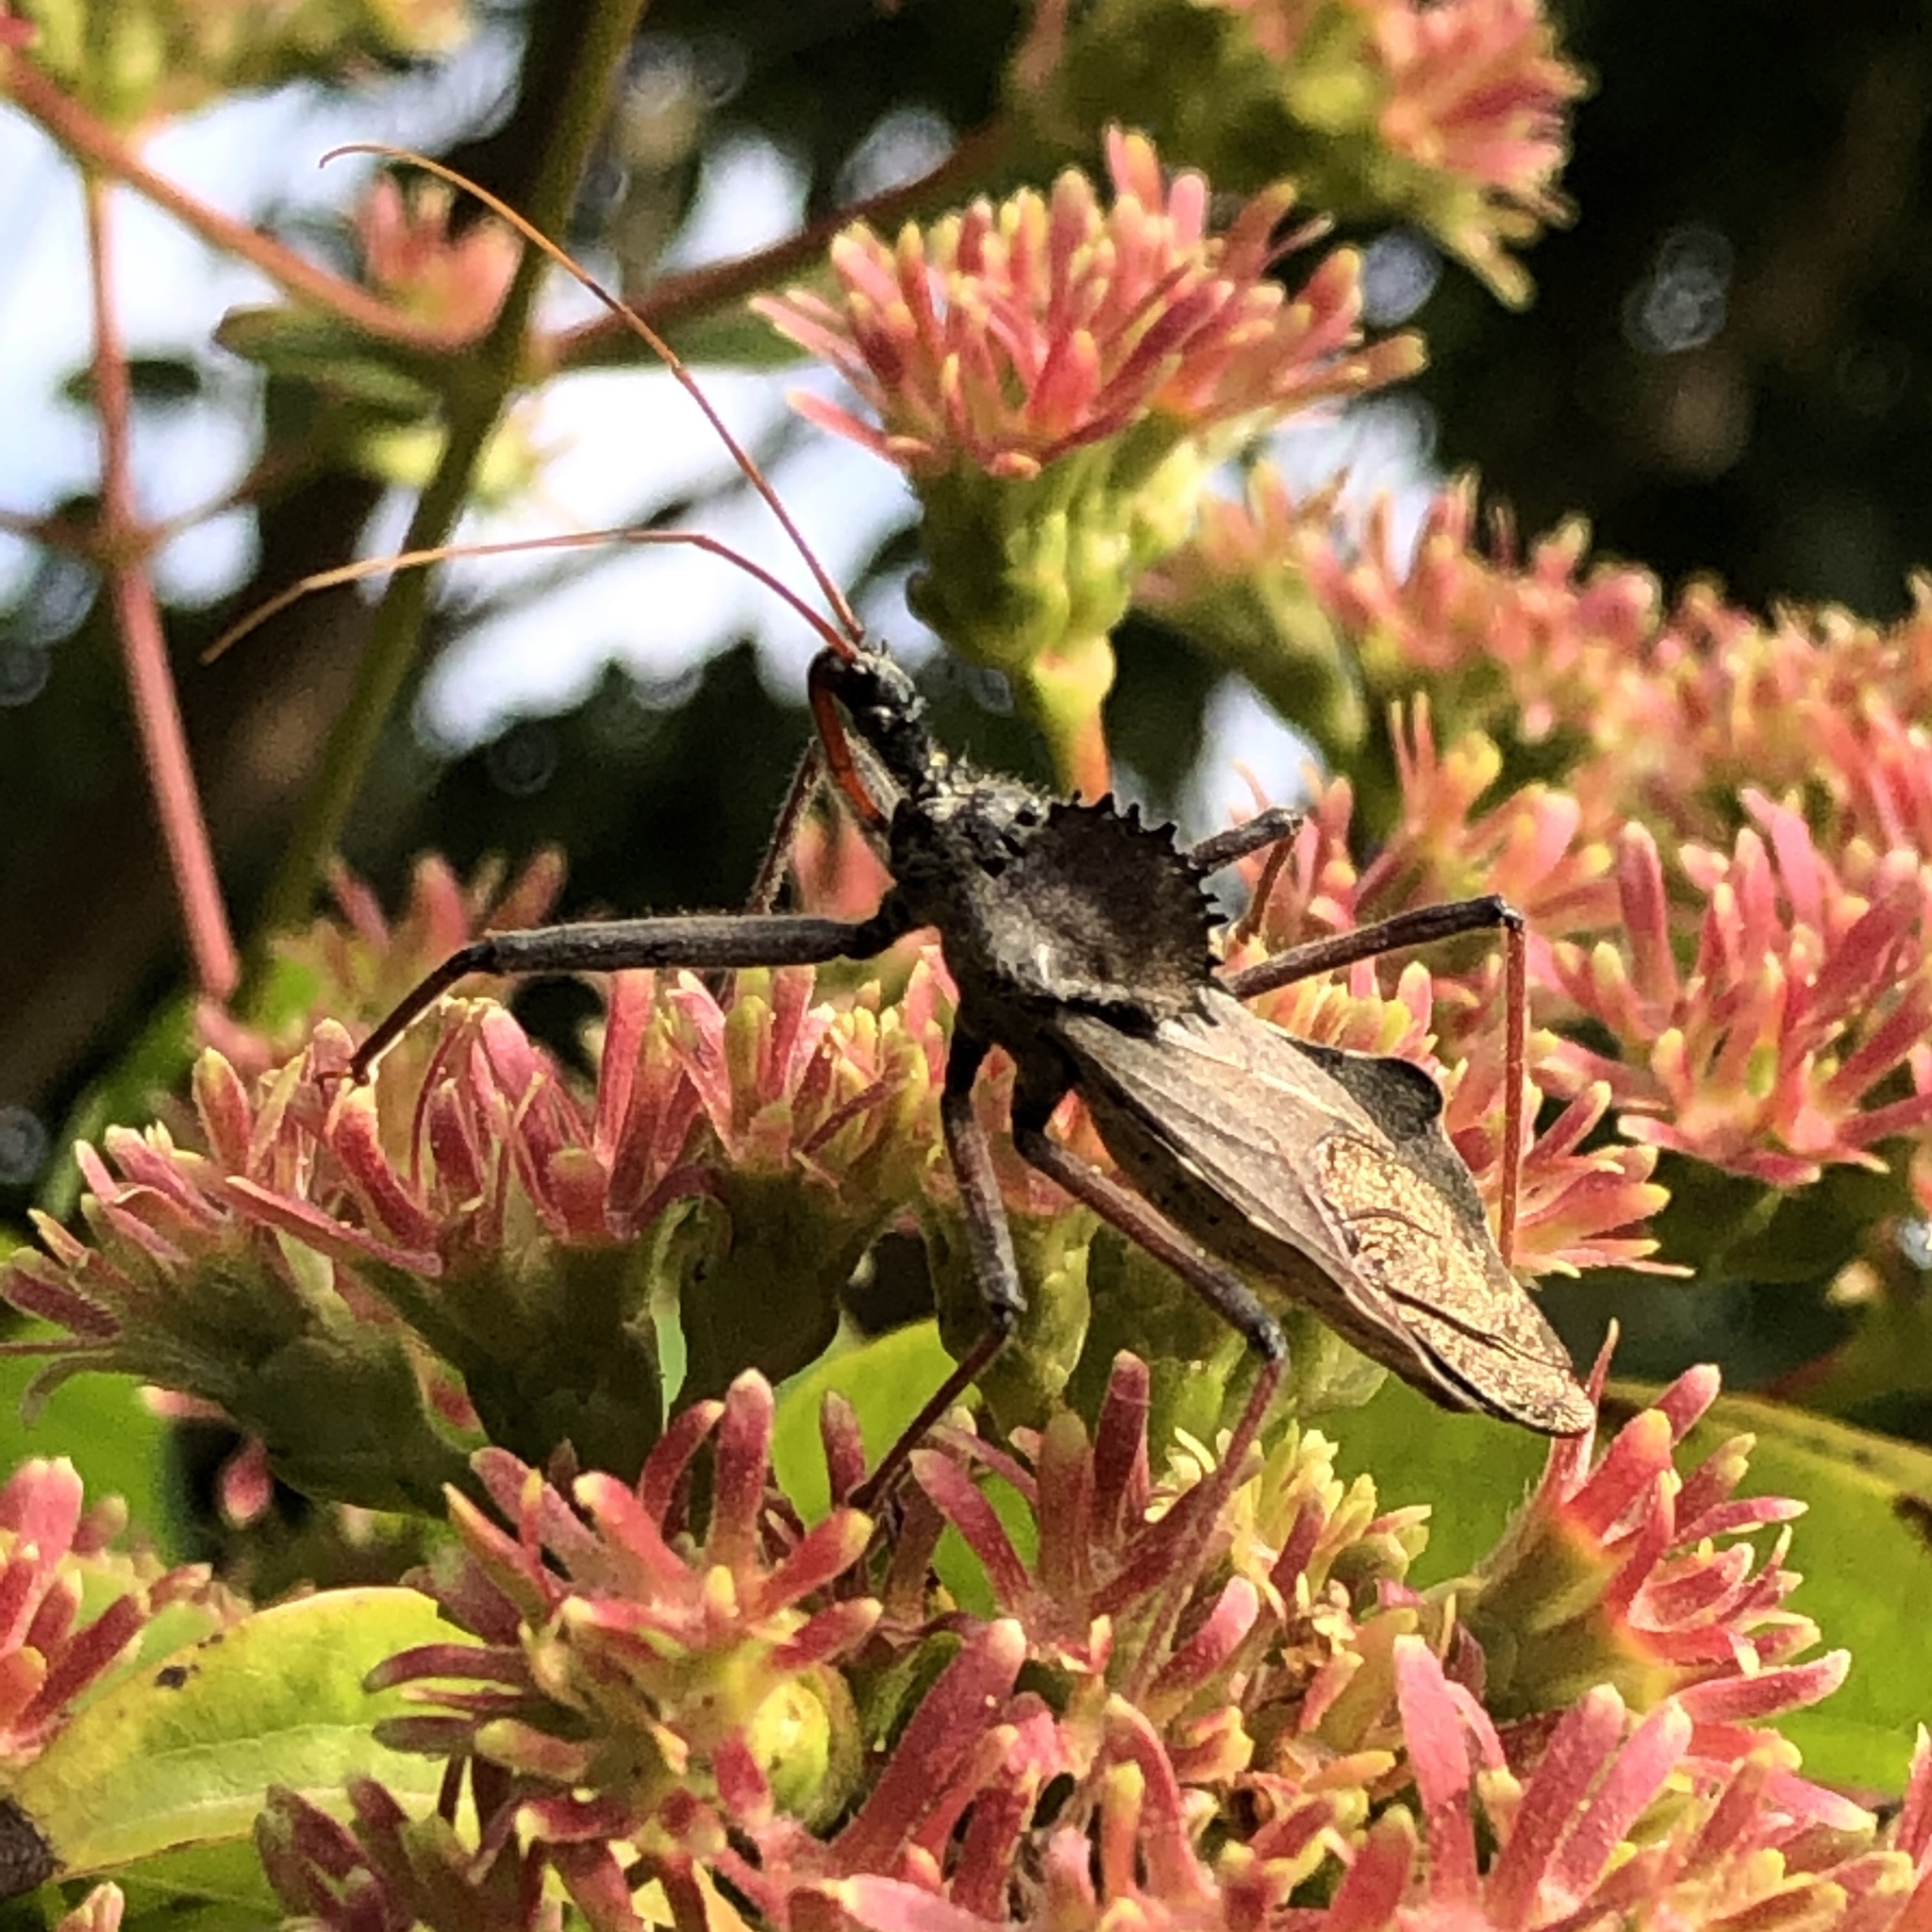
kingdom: Animalia
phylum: Arthropoda
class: Insecta
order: Hemiptera
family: Reduviidae
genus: Arilus
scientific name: Arilus cristatus
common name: North american wheel bug
